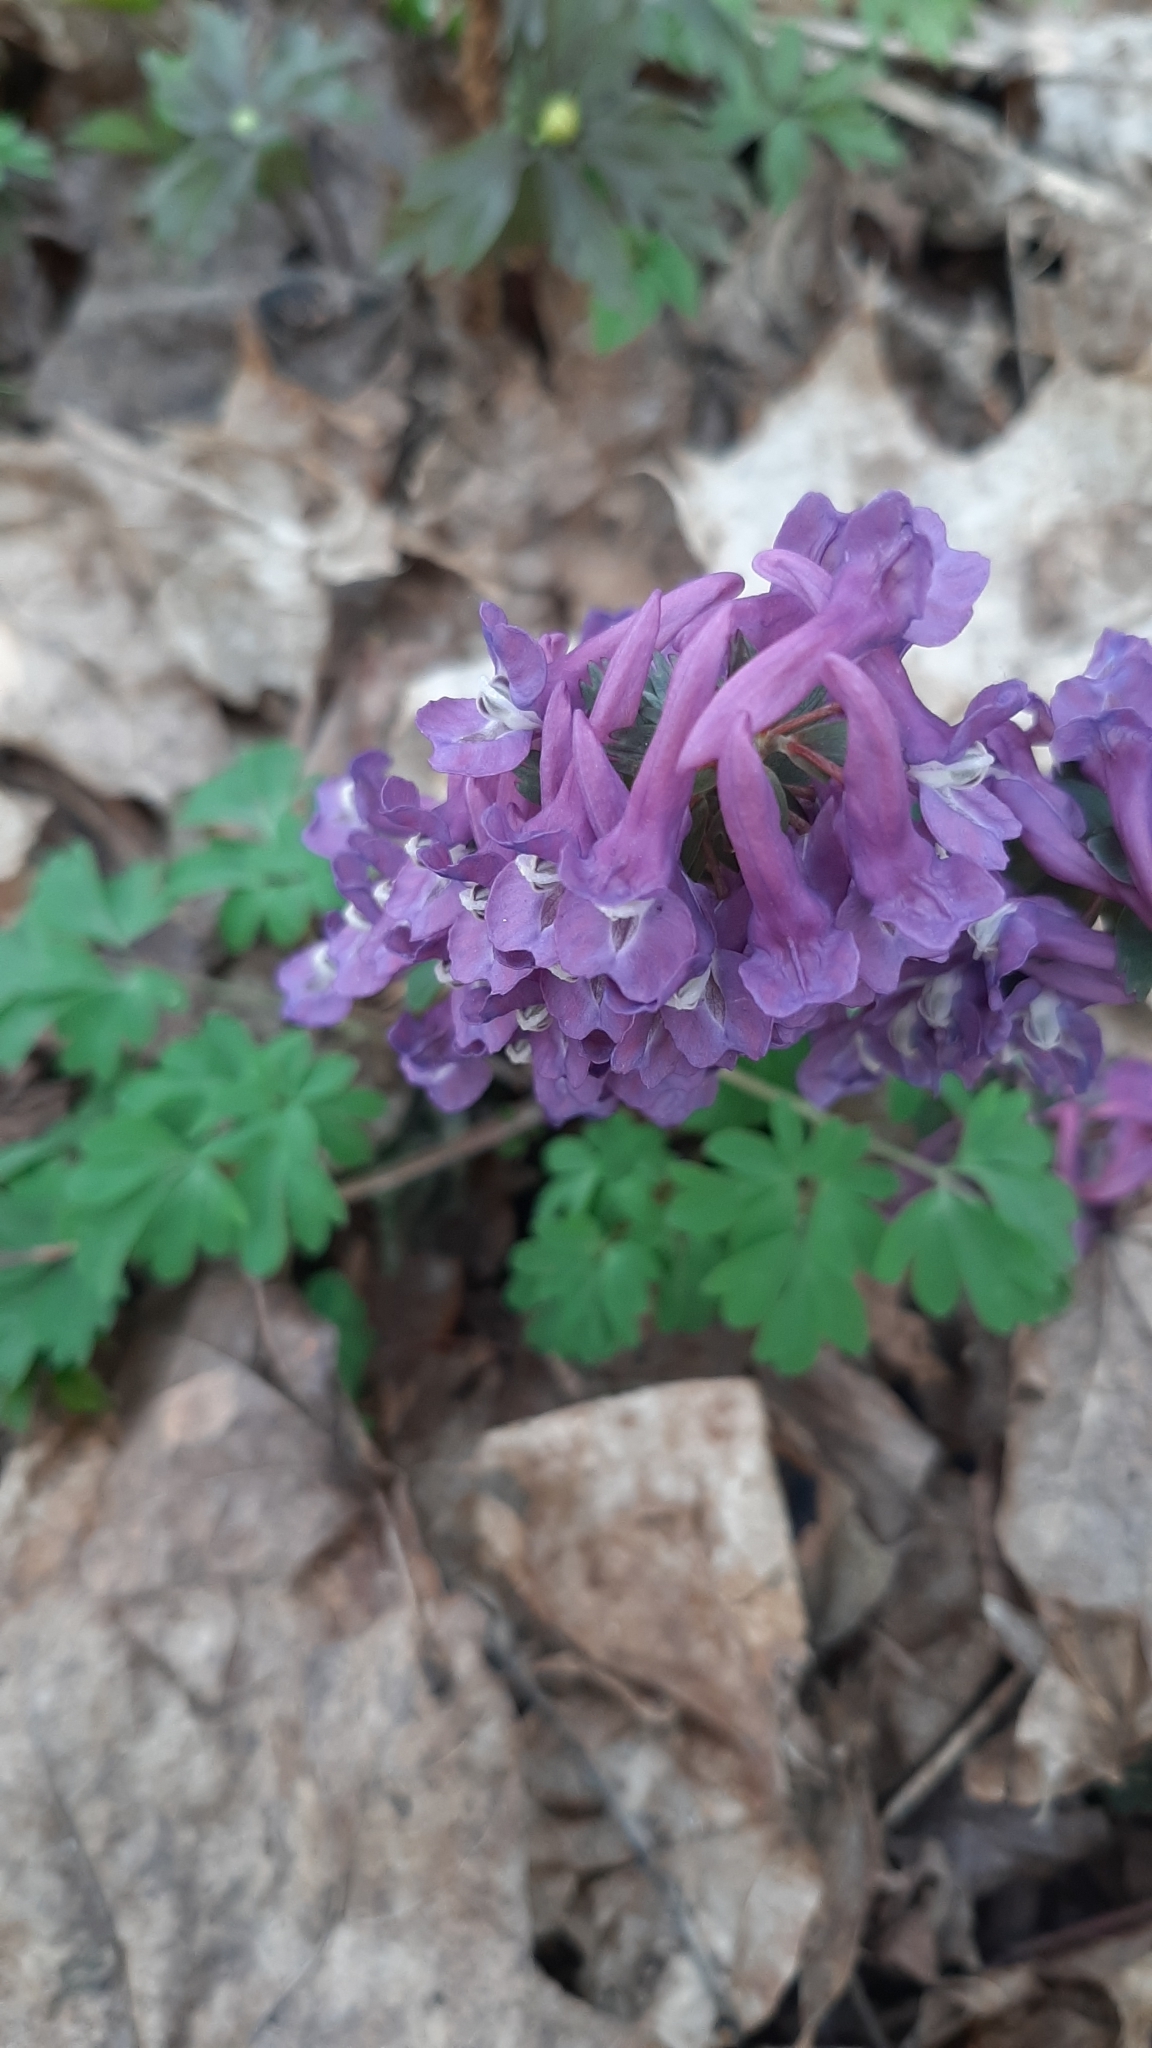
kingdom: Plantae
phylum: Tracheophyta
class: Magnoliopsida
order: Ranunculales
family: Papaveraceae
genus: Corydalis
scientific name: Corydalis solida
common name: Bird-in-a-bush
